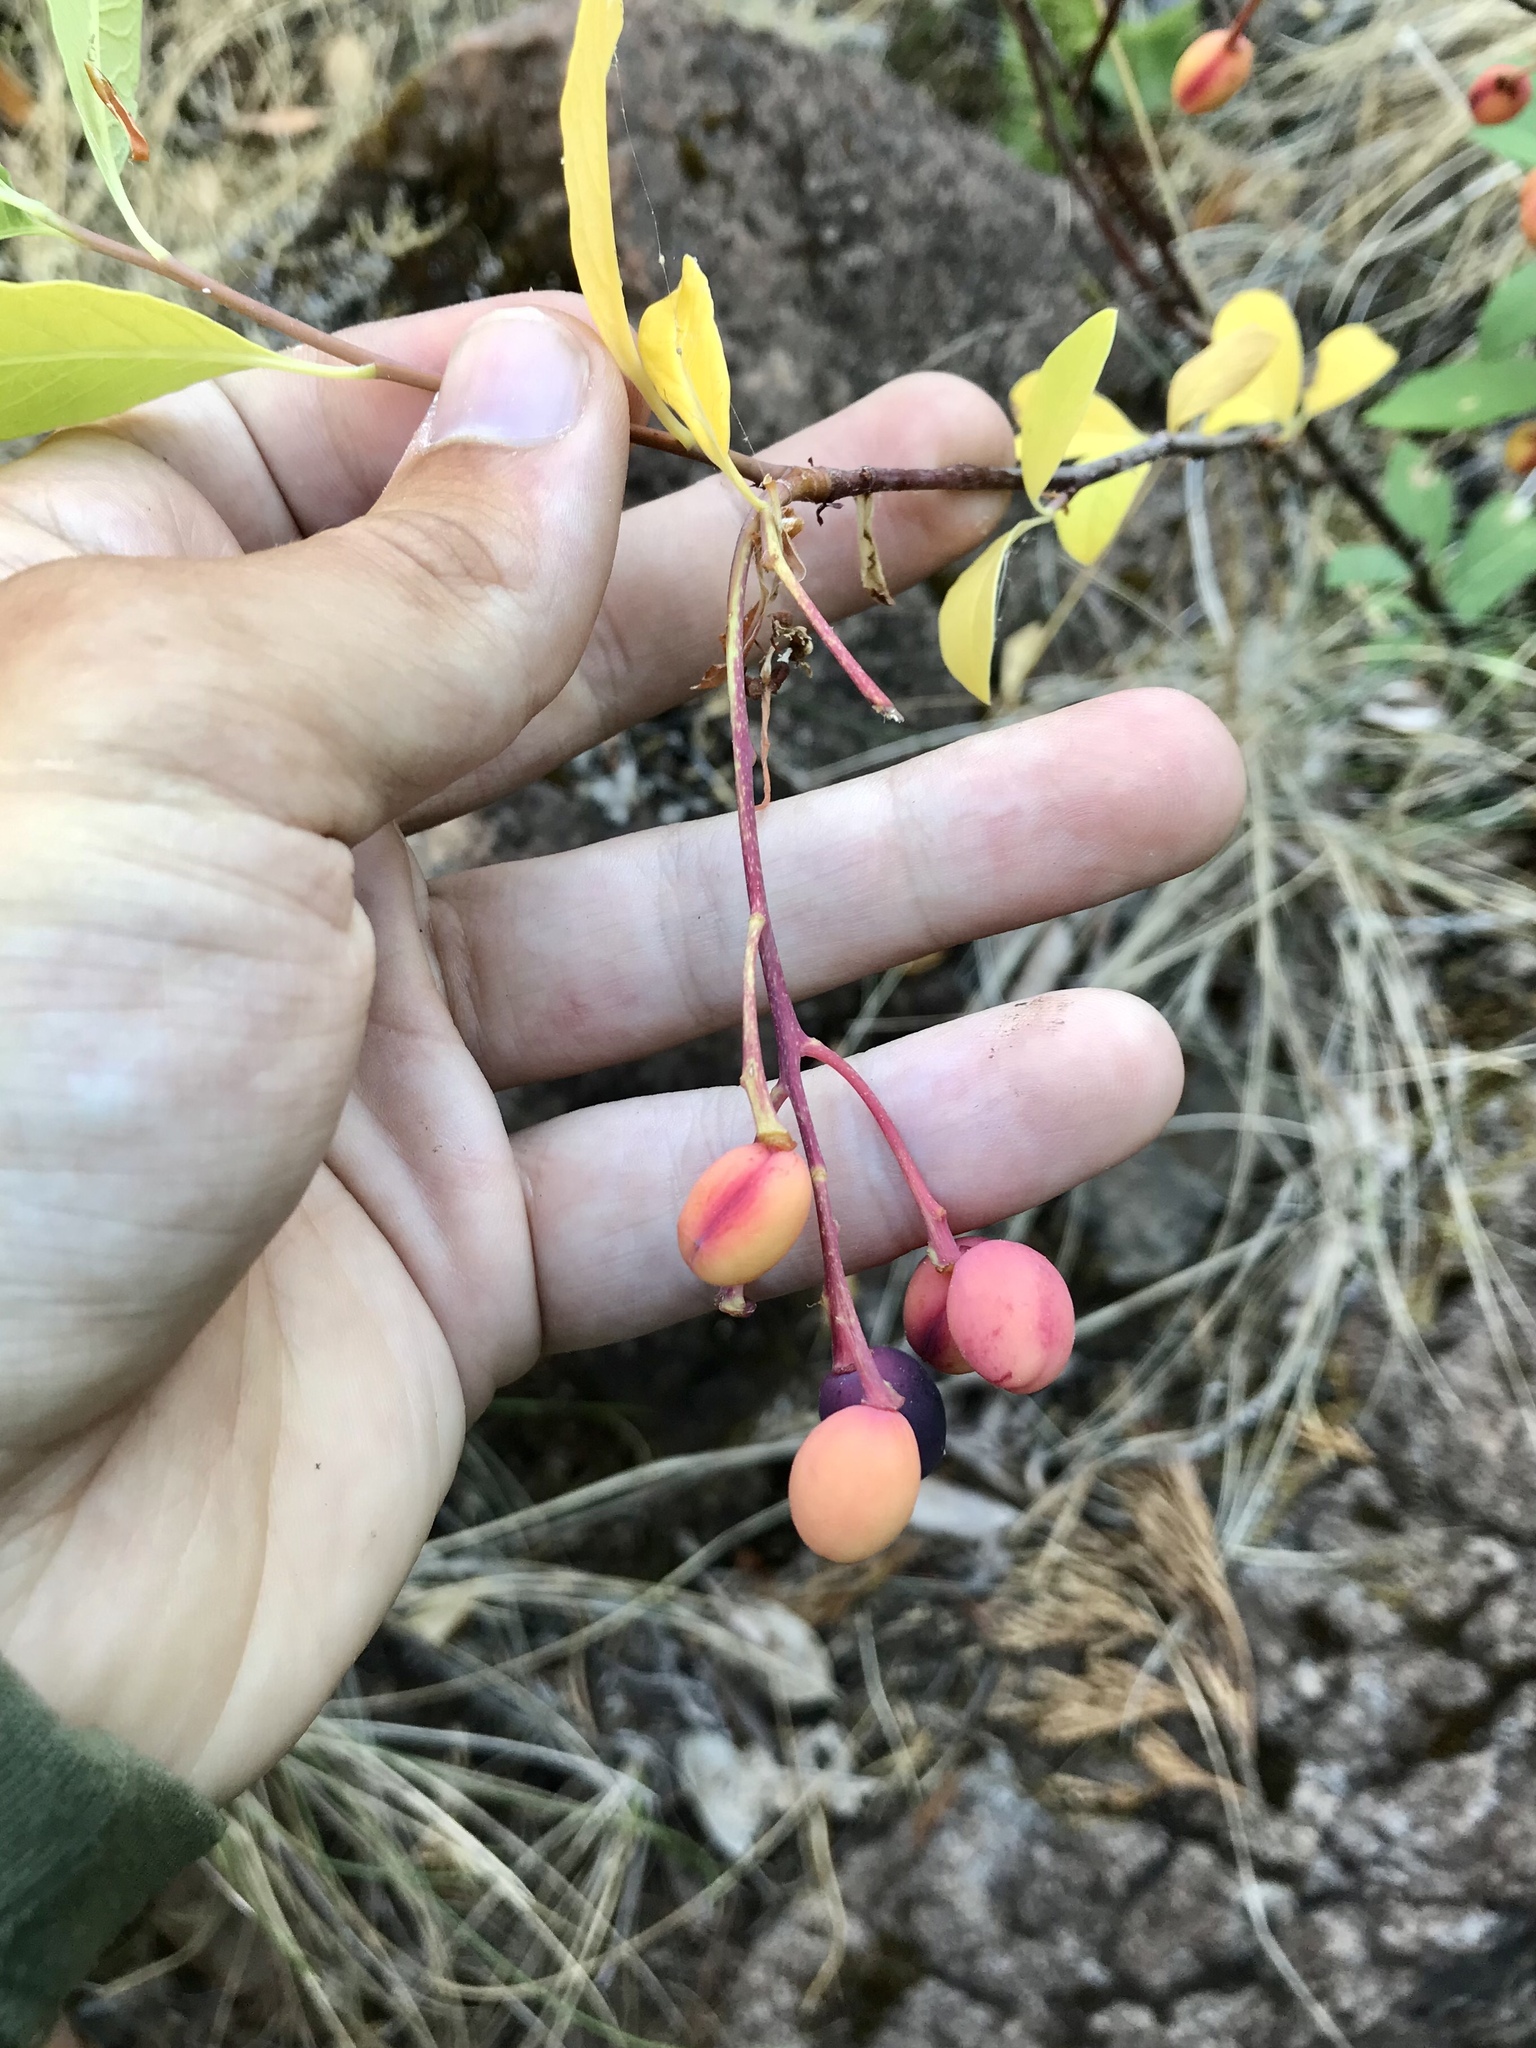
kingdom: Plantae
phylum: Tracheophyta
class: Magnoliopsida
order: Rosales
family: Rosaceae
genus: Oemleria
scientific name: Oemleria cerasiformis
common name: Osoberry
